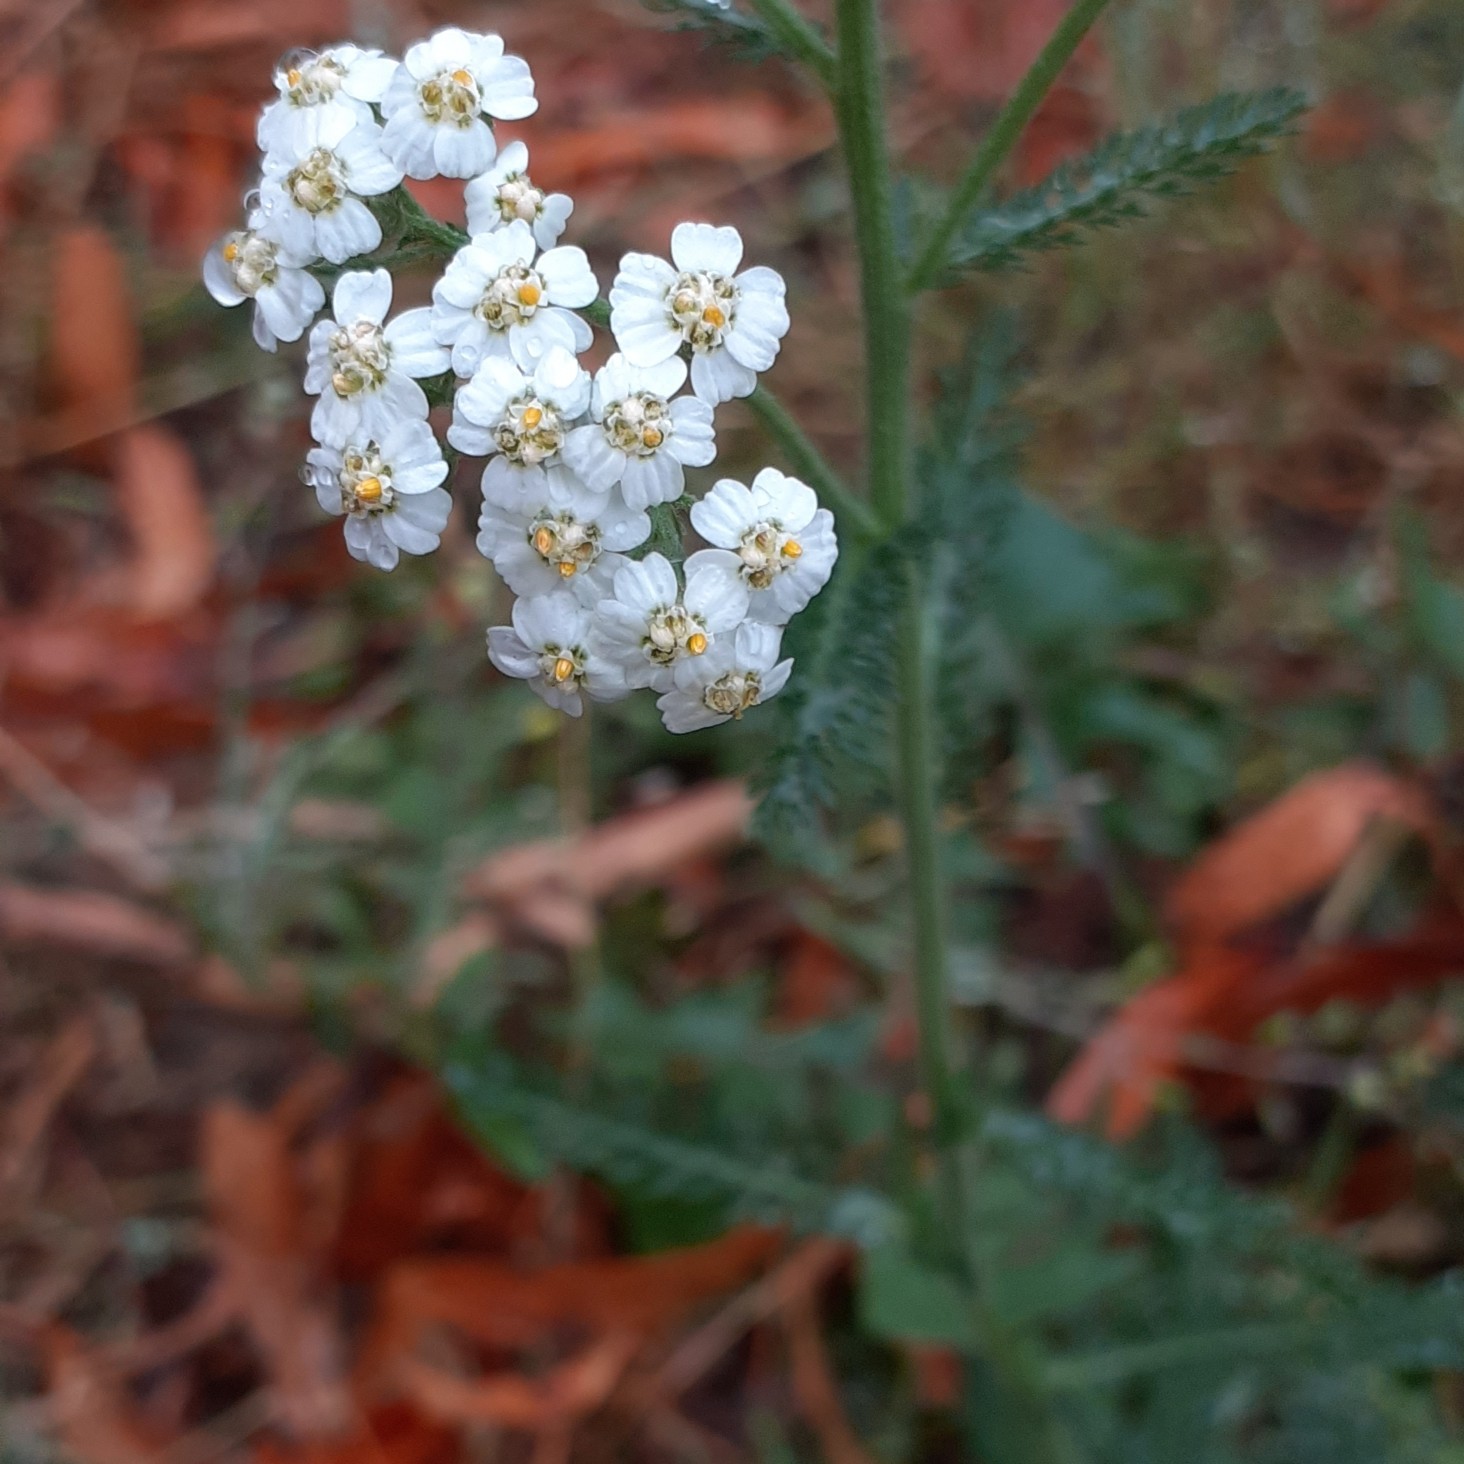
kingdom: Plantae
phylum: Tracheophyta
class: Magnoliopsida
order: Asterales
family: Asteraceae
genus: Achillea
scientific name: Achillea millefolium
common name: Yarrow
